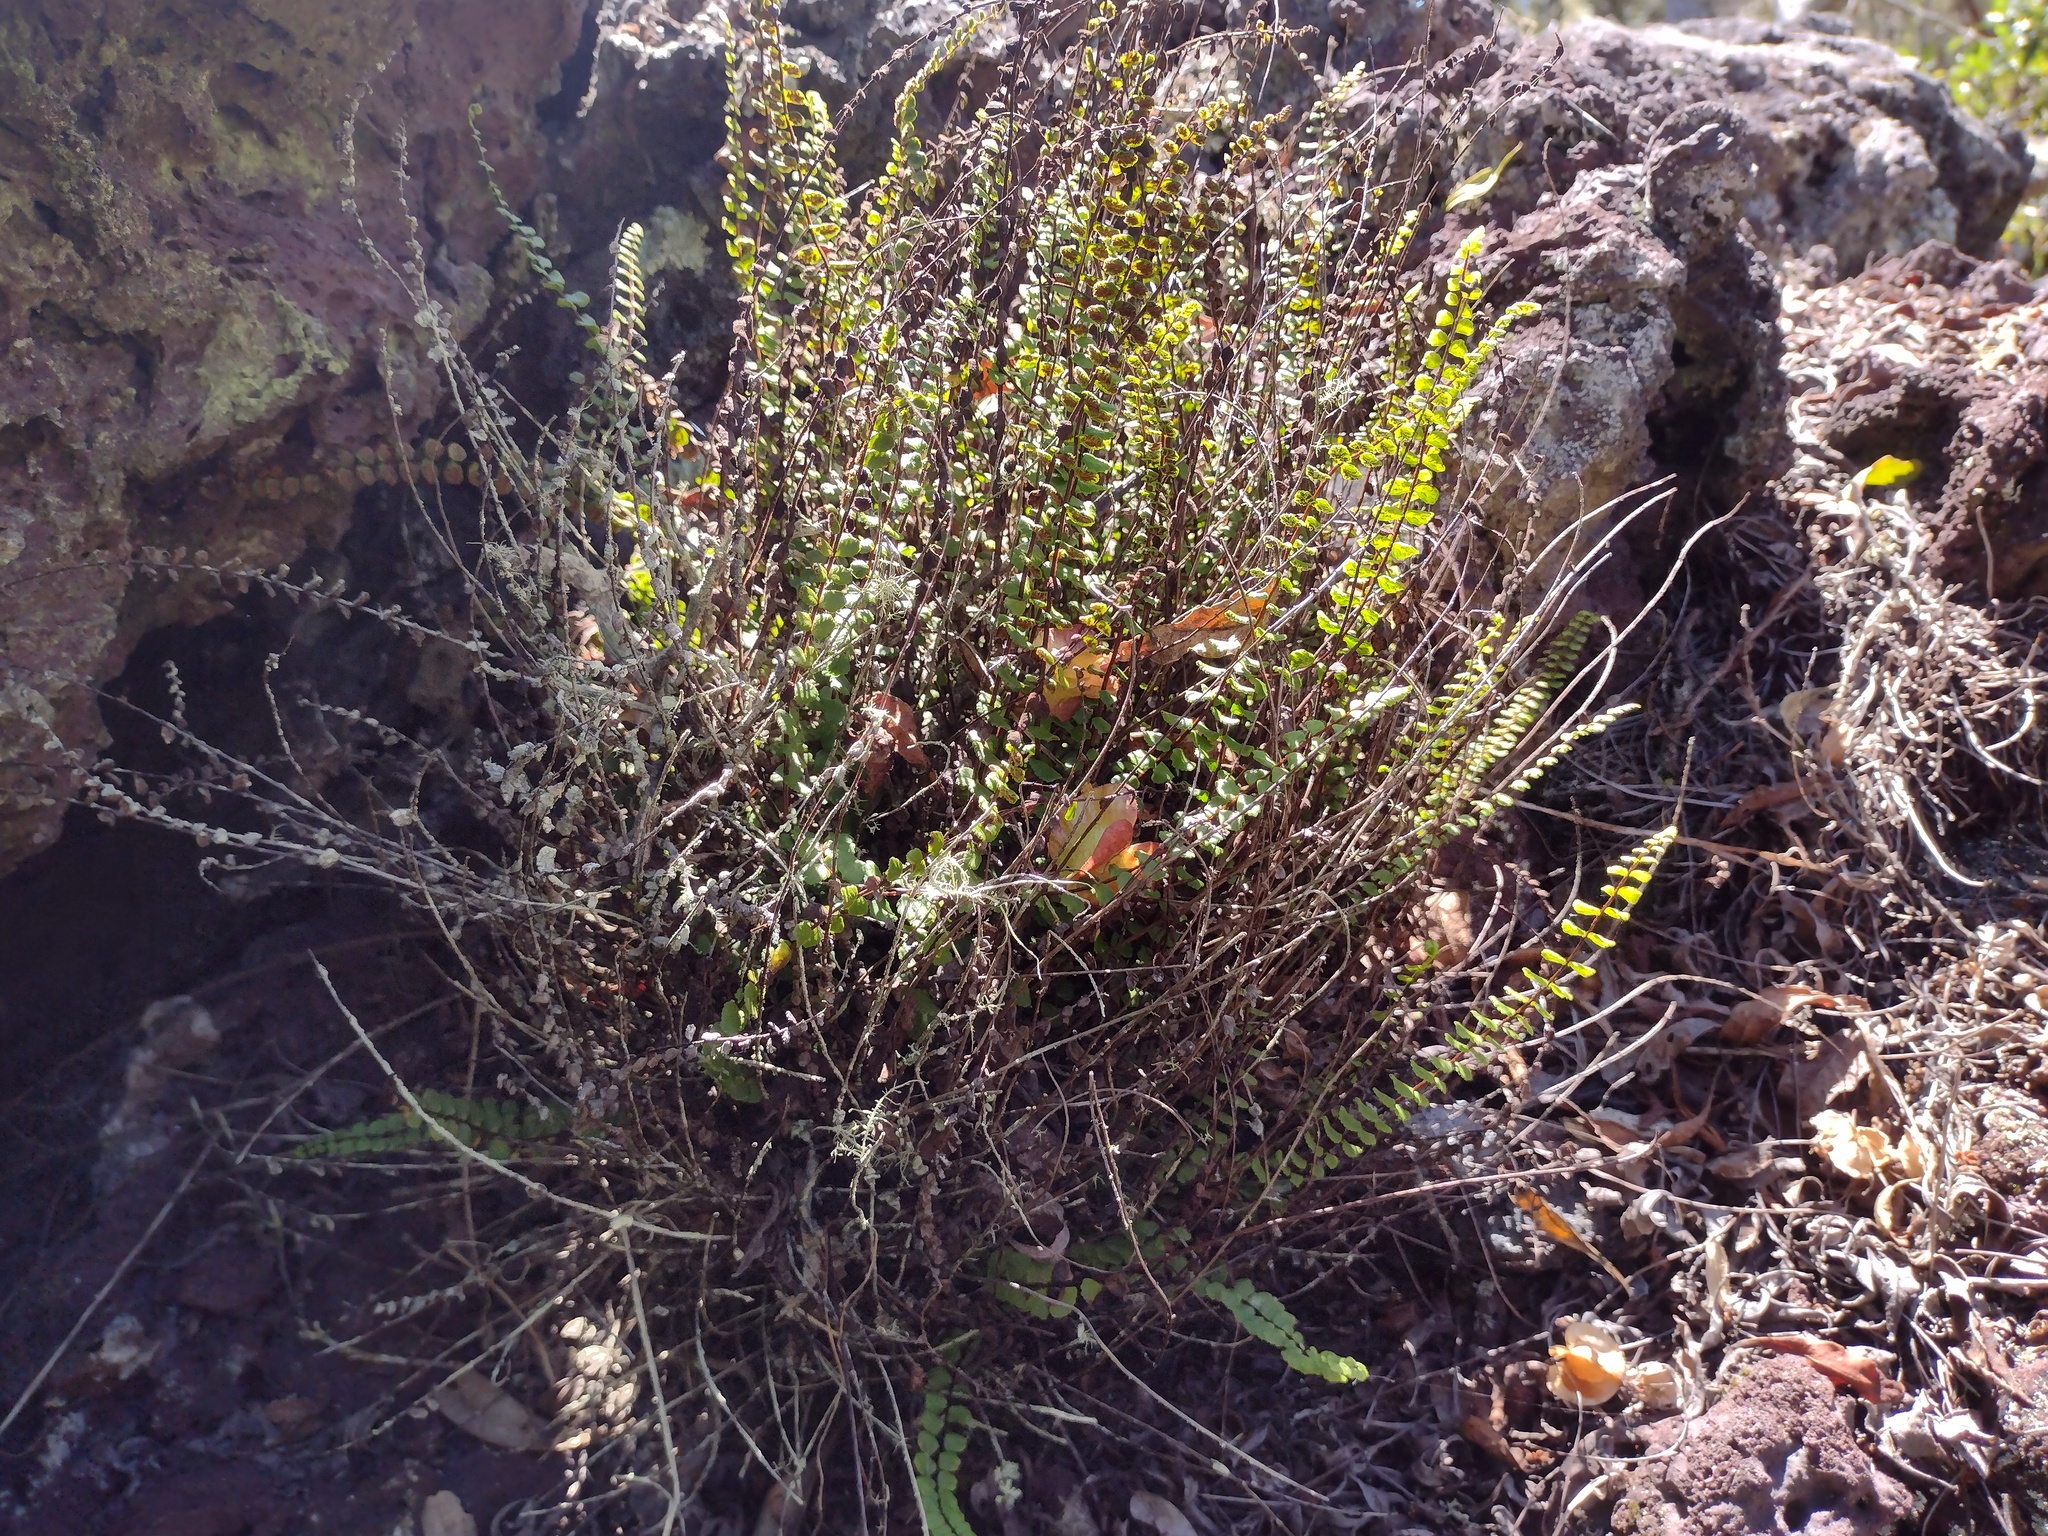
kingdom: Plantae
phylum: Tracheophyta
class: Polypodiopsida
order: Polypodiales
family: Aspleniaceae
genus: Asplenium
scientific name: Asplenium trichomanes
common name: Maidenhair spleenwort
